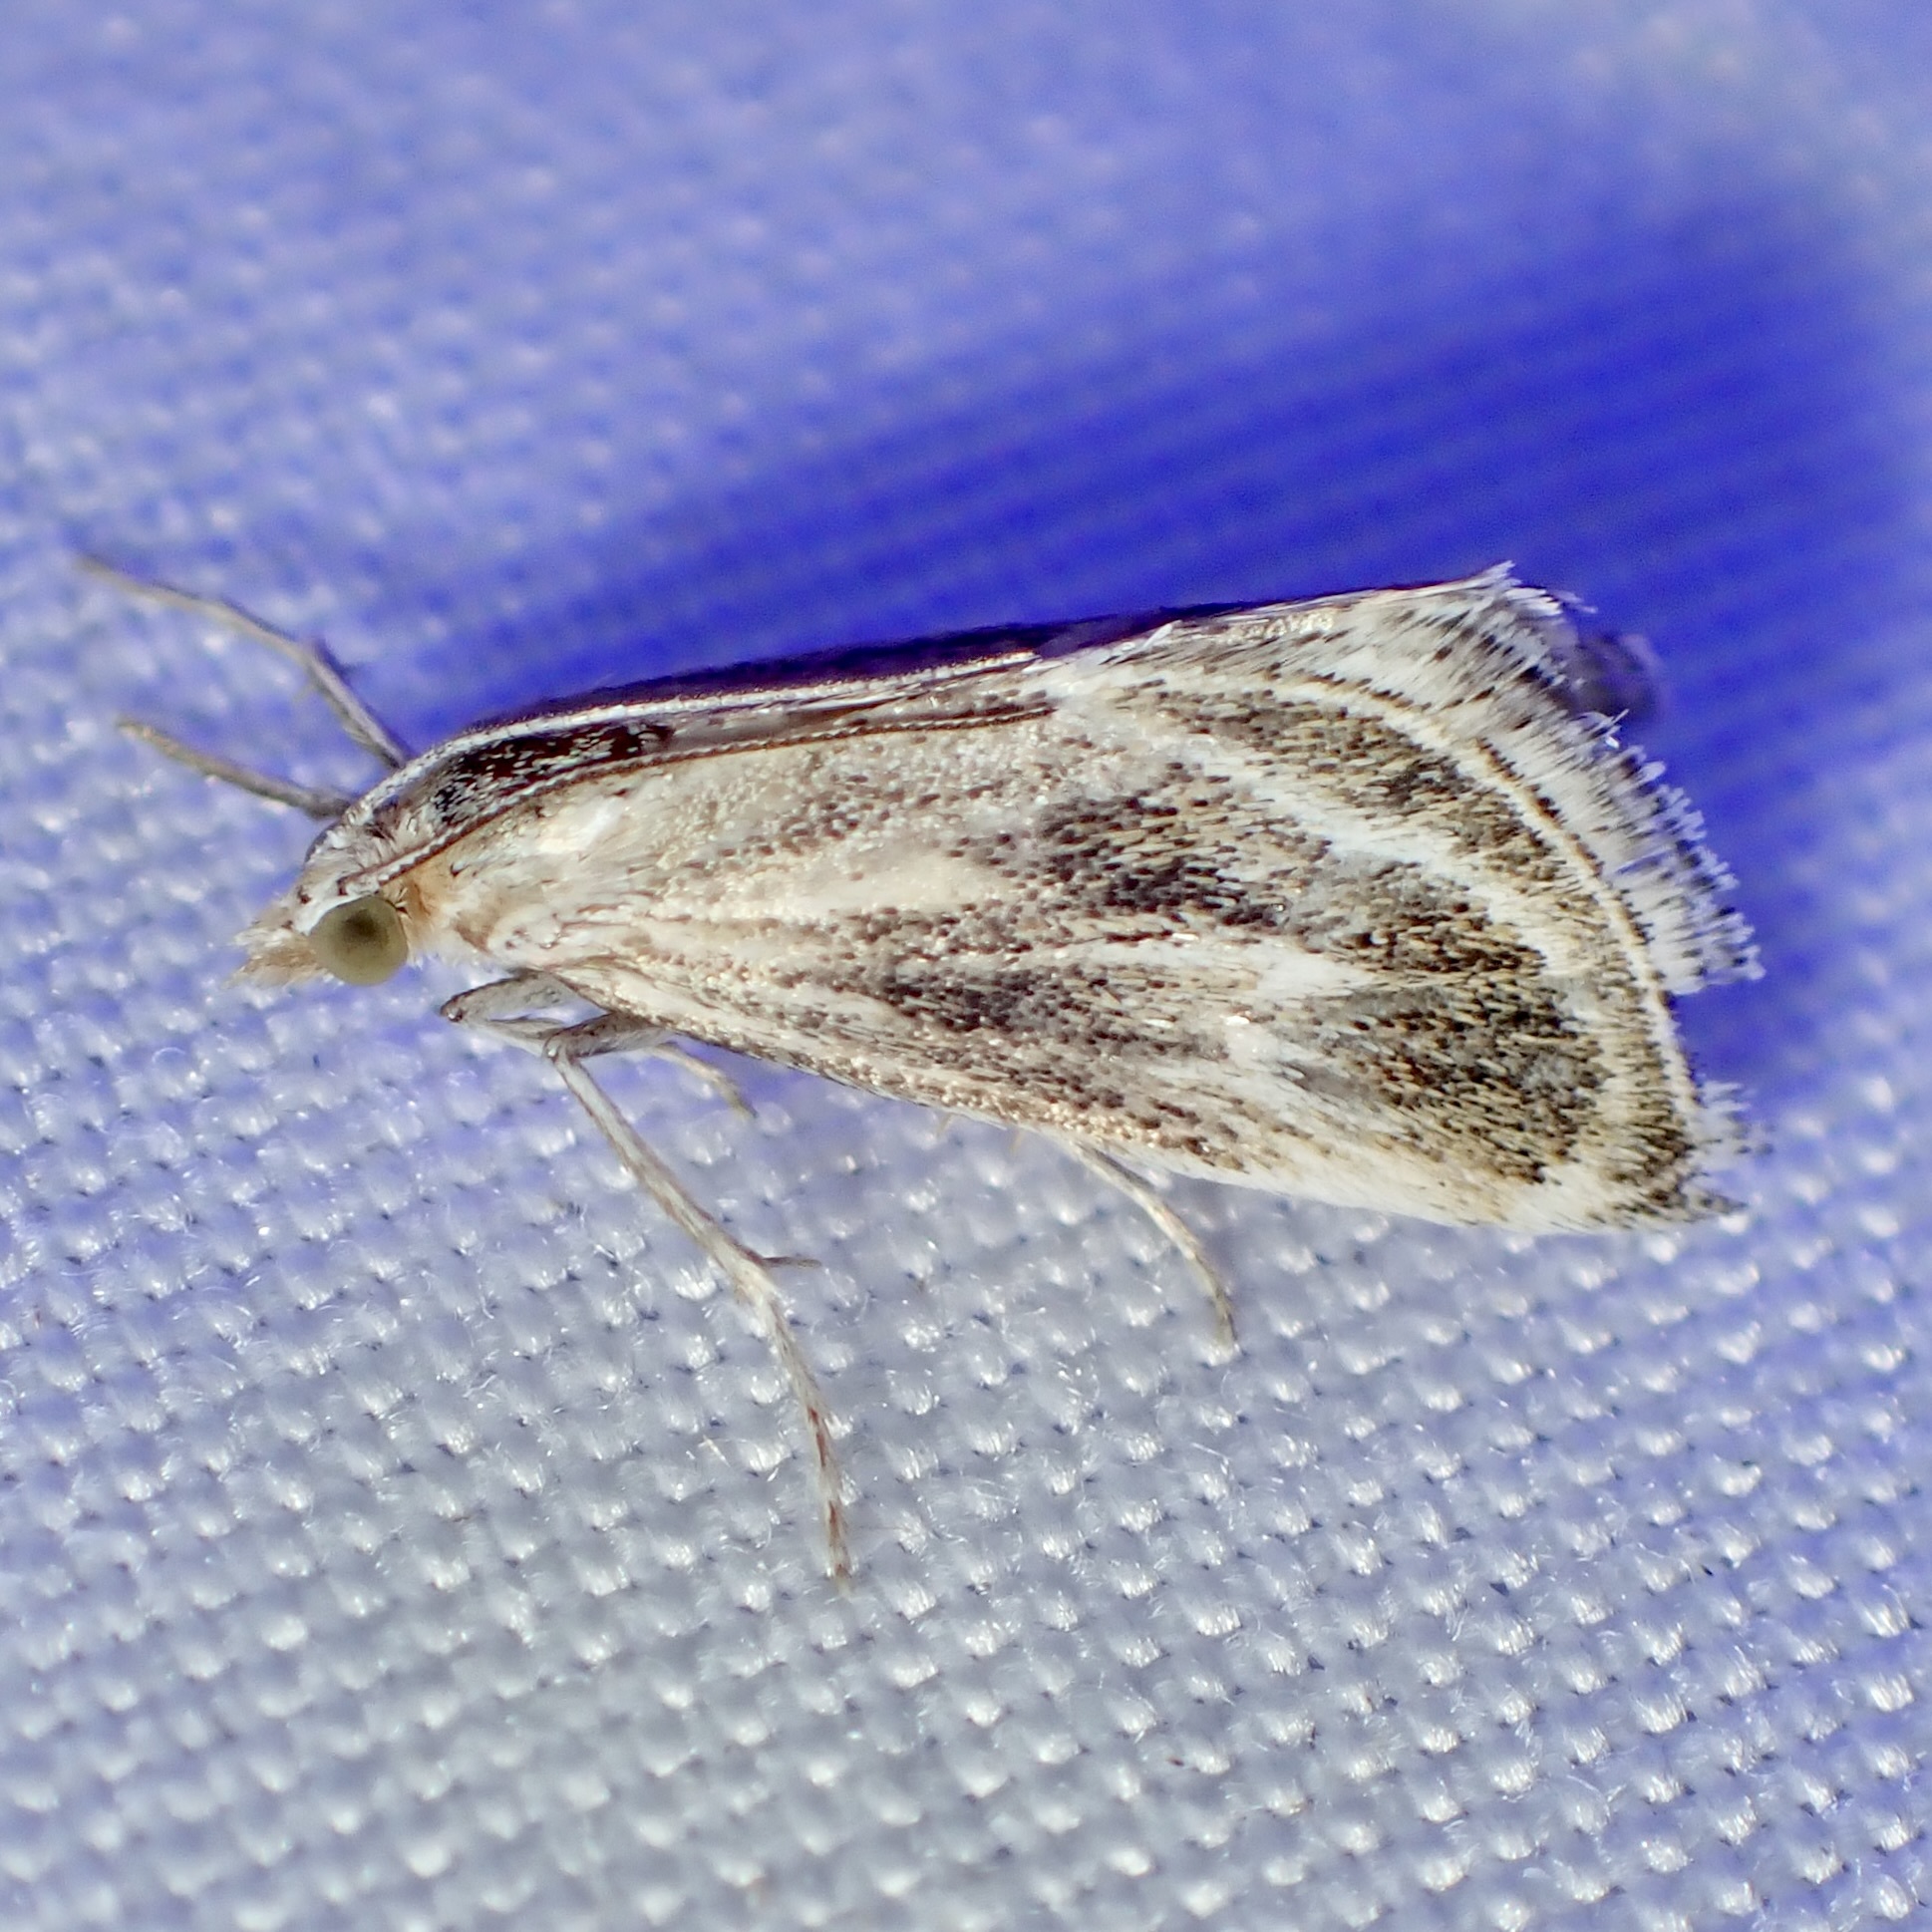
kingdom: Animalia
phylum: Arthropoda
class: Insecta
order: Lepidoptera
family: Crambidae
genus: Frechinia
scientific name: Frechinia helianthiales
